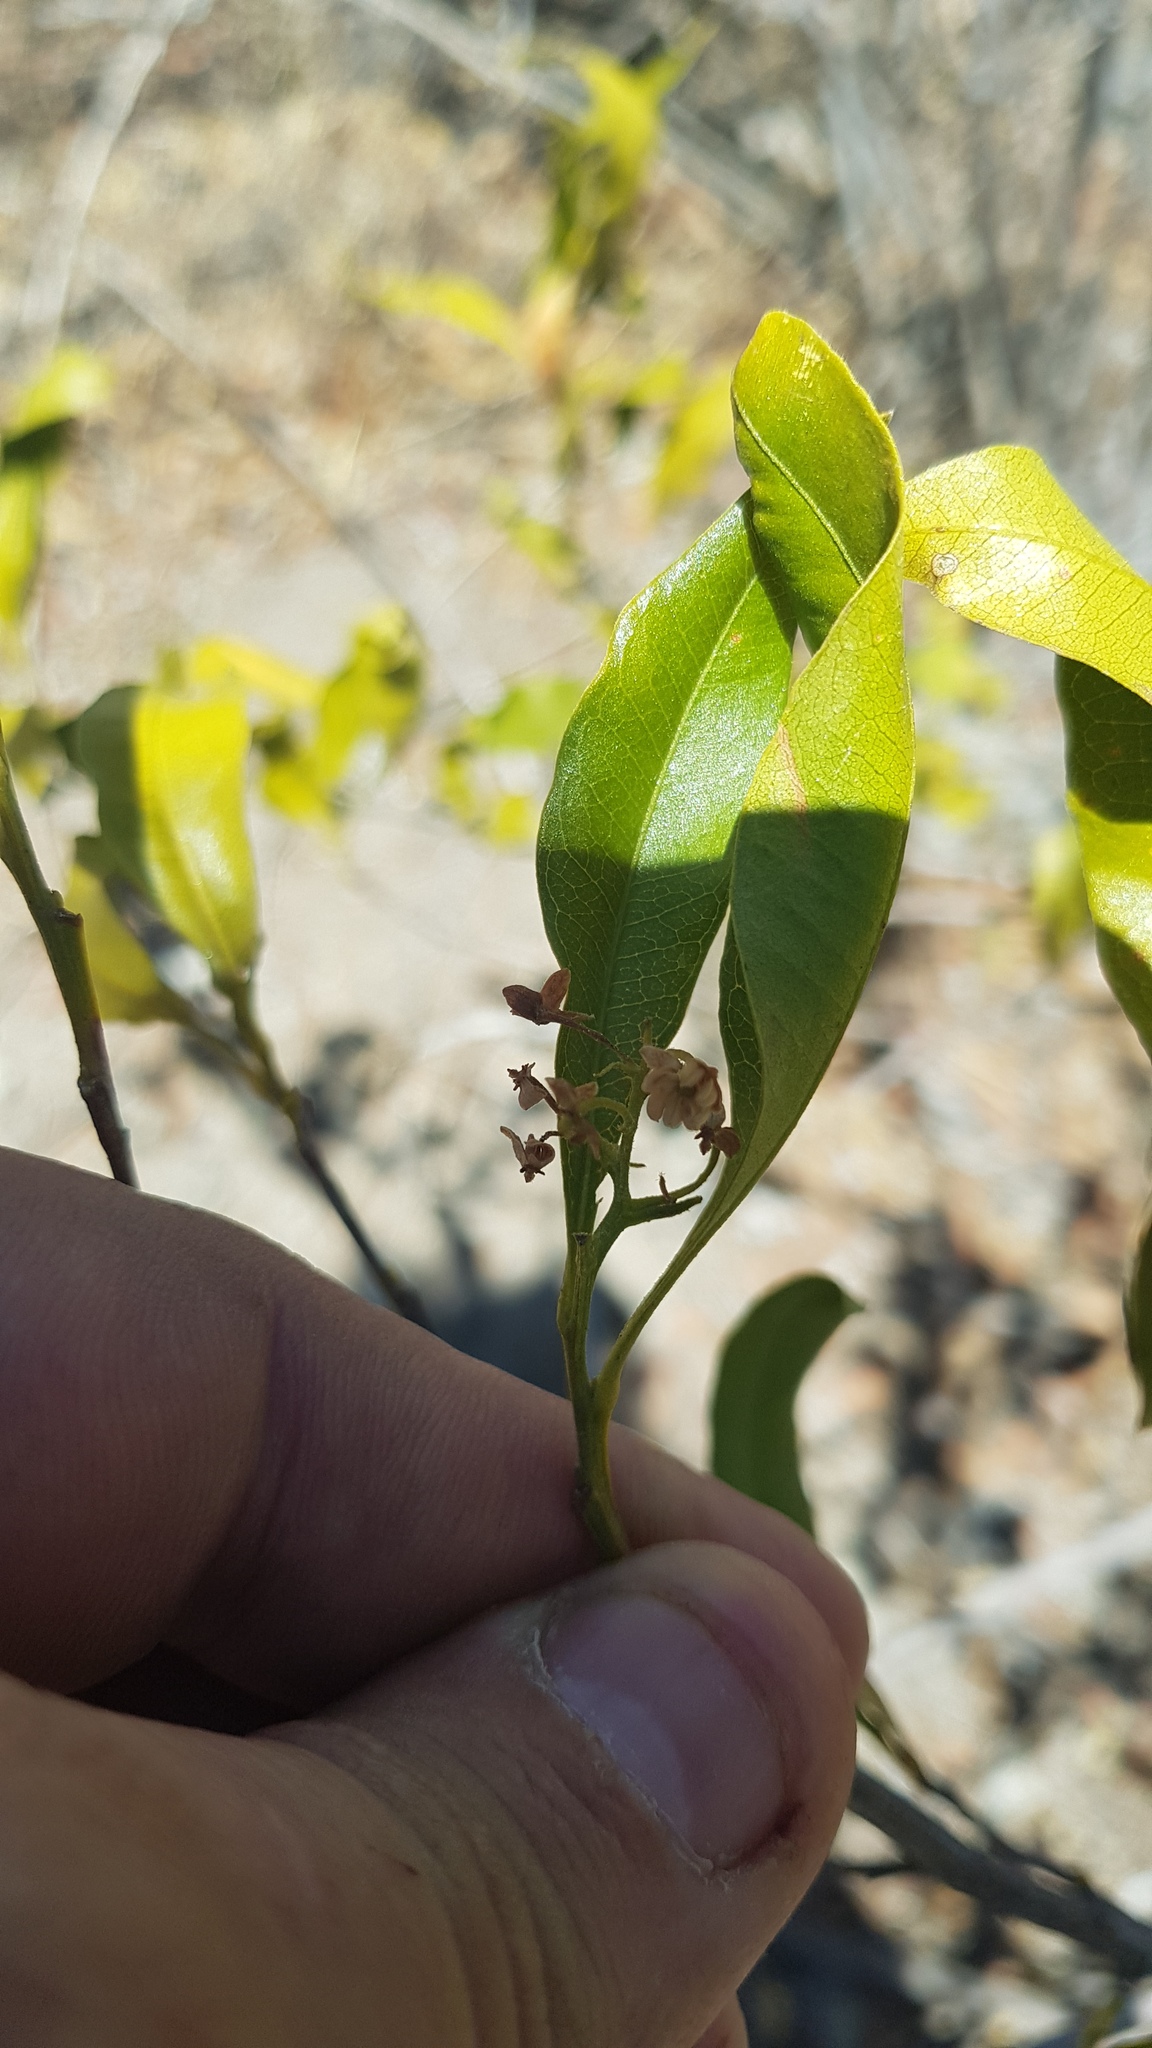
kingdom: Plantae
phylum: Tracheophyta
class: Magnoliopsida
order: Sapindales
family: Sapindaceae
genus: Dodonaea
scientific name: Dodonaea viscosa
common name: Hopbush
